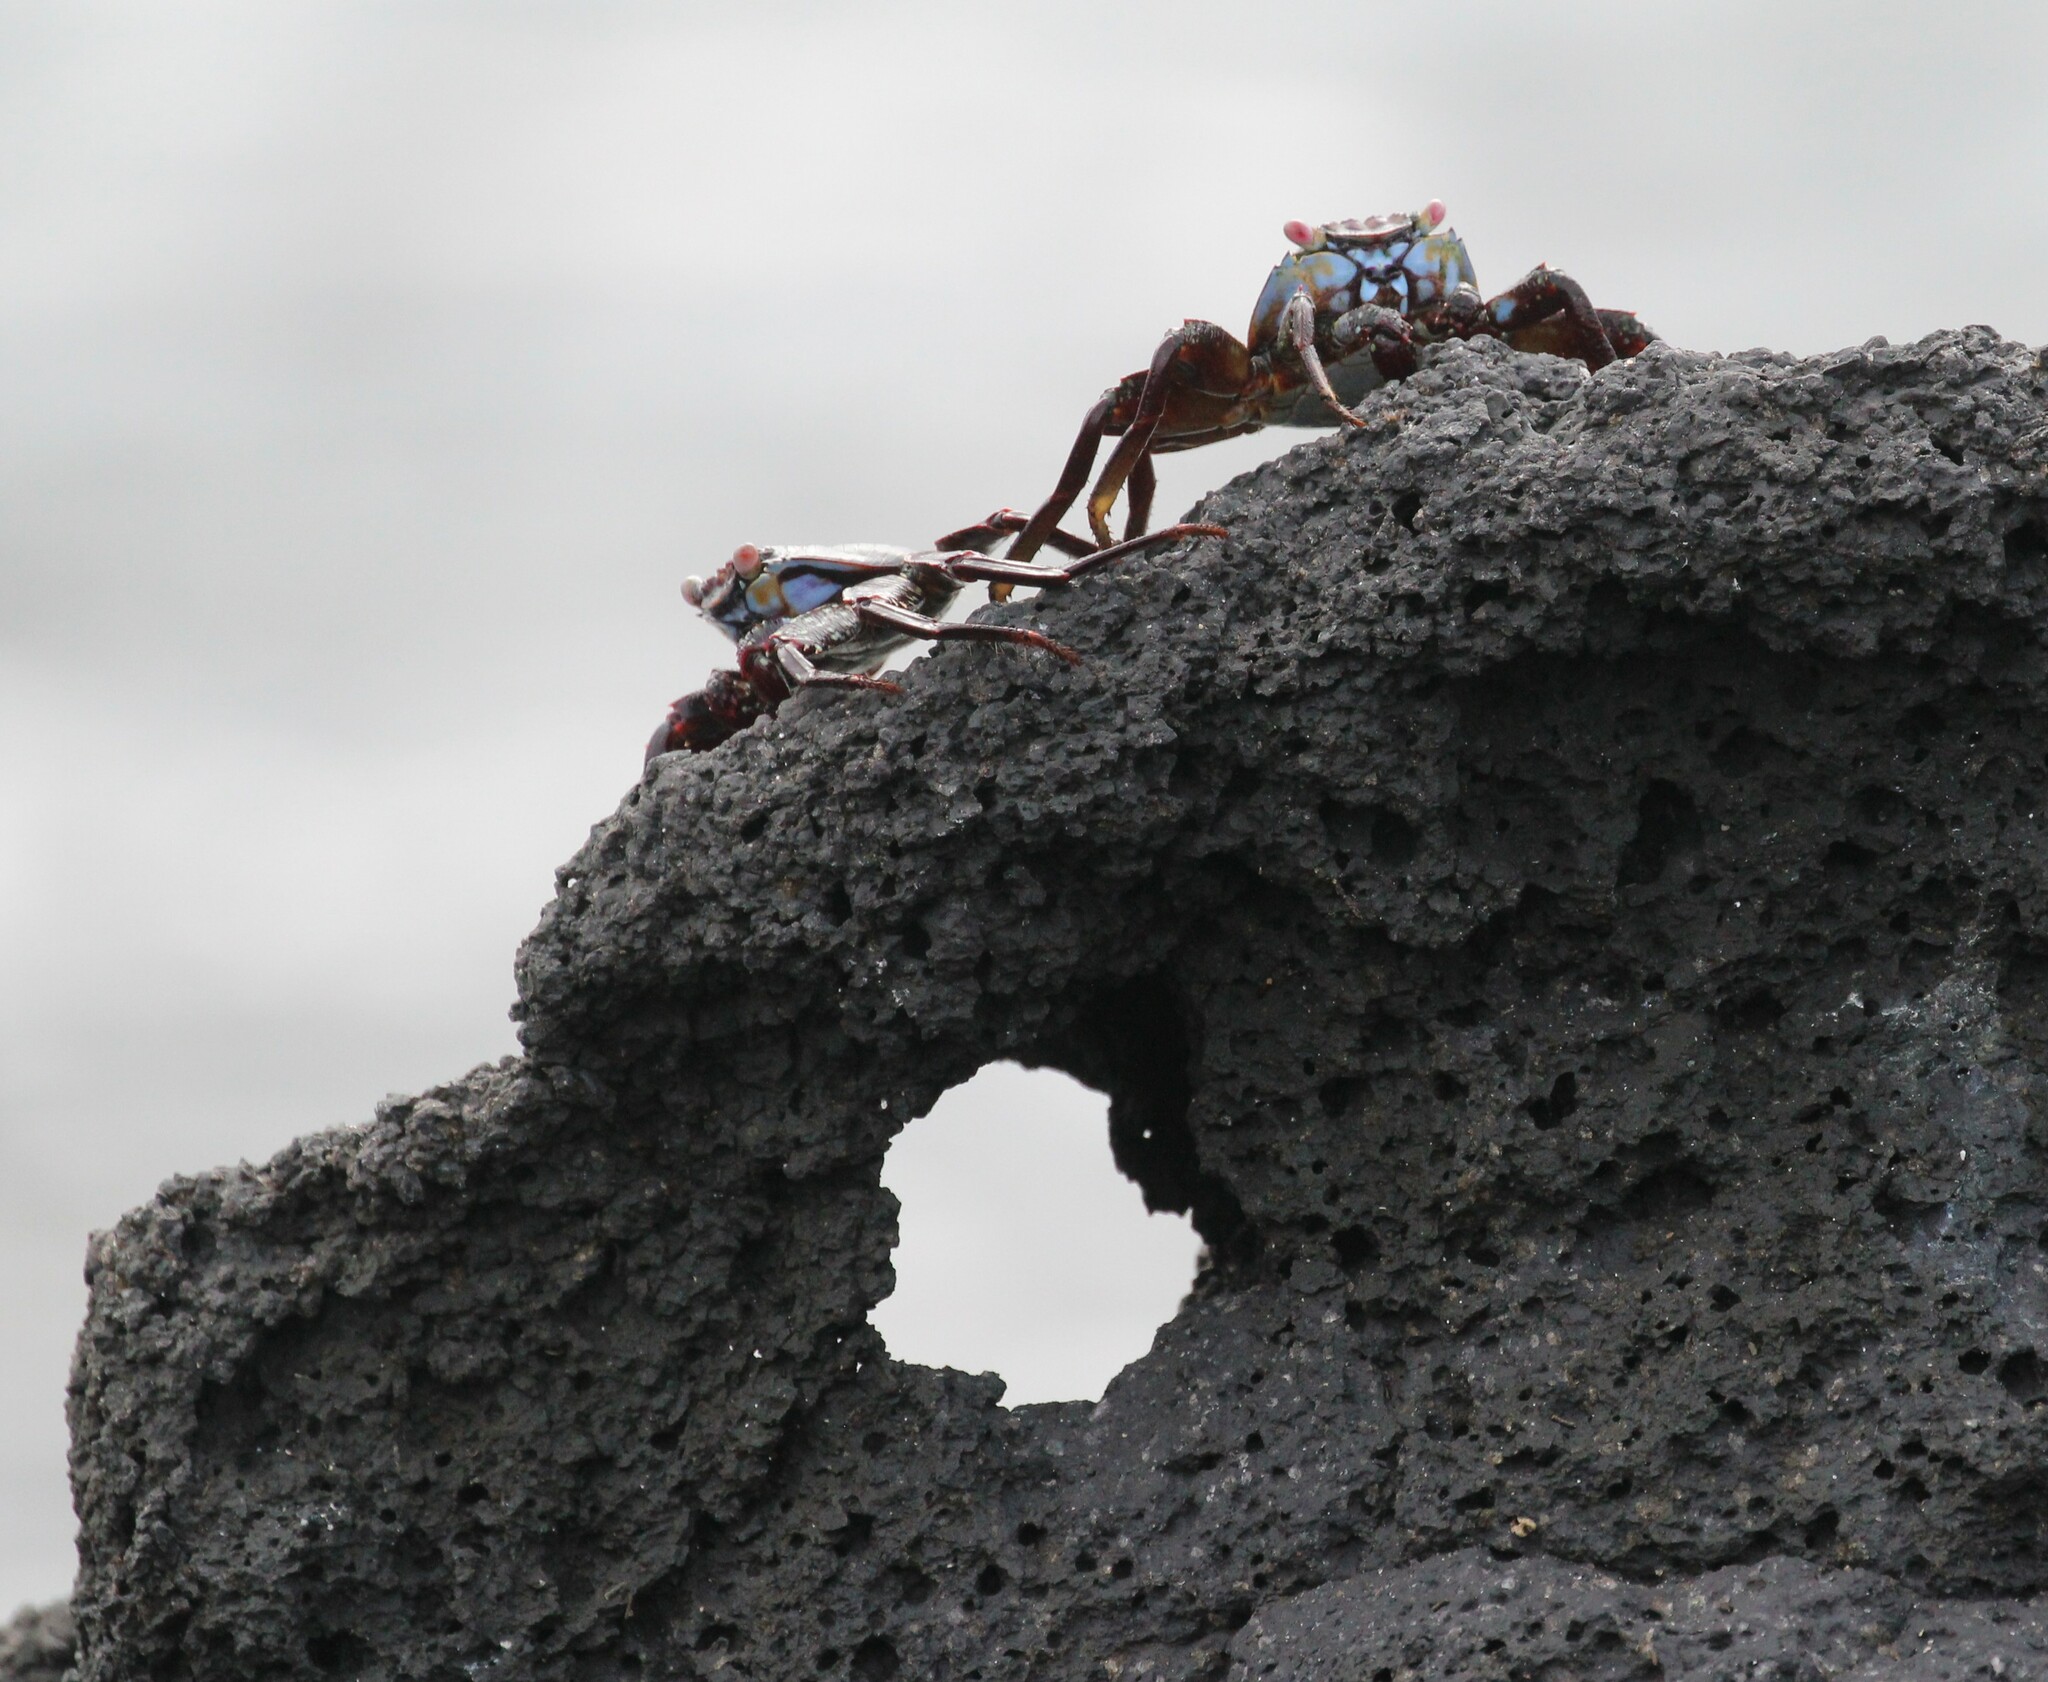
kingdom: Animalia
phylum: Arthropoda
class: Malacostraca
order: Decapoda
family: Grapsidae
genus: Grapsus
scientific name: Grapsus grapsus
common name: Sally lightfoot
